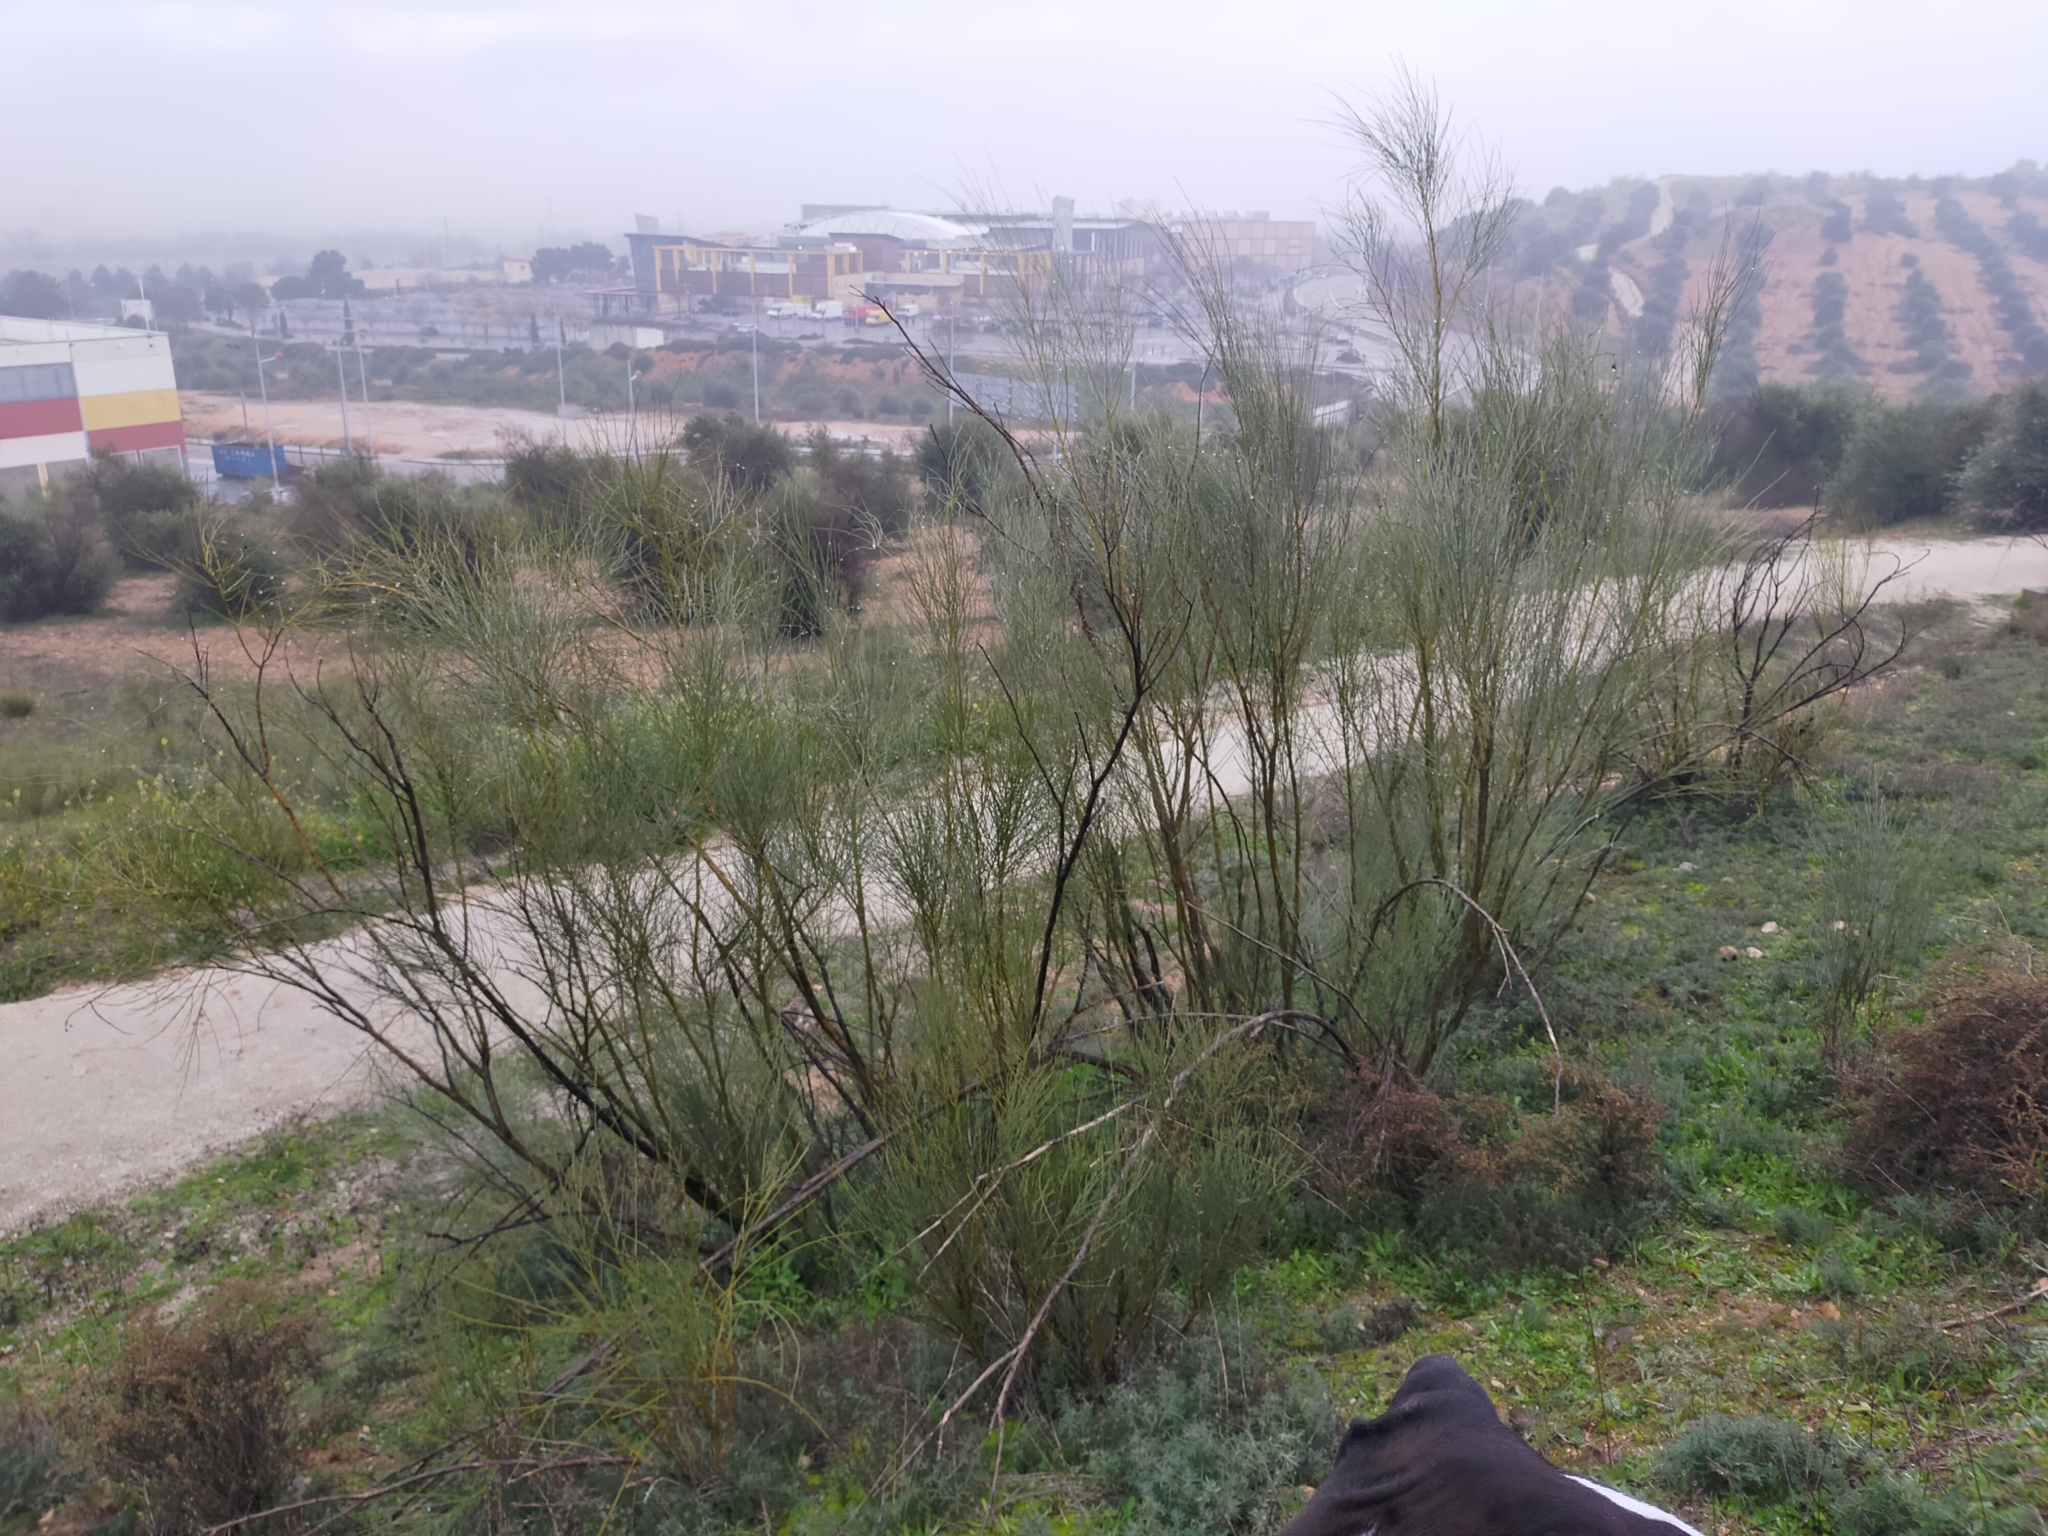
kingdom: Plantae
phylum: Tracheophyta
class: Magnoliopsida
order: Fabales
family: Fabaceae
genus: Retama
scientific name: Retama sphaerocarpa
